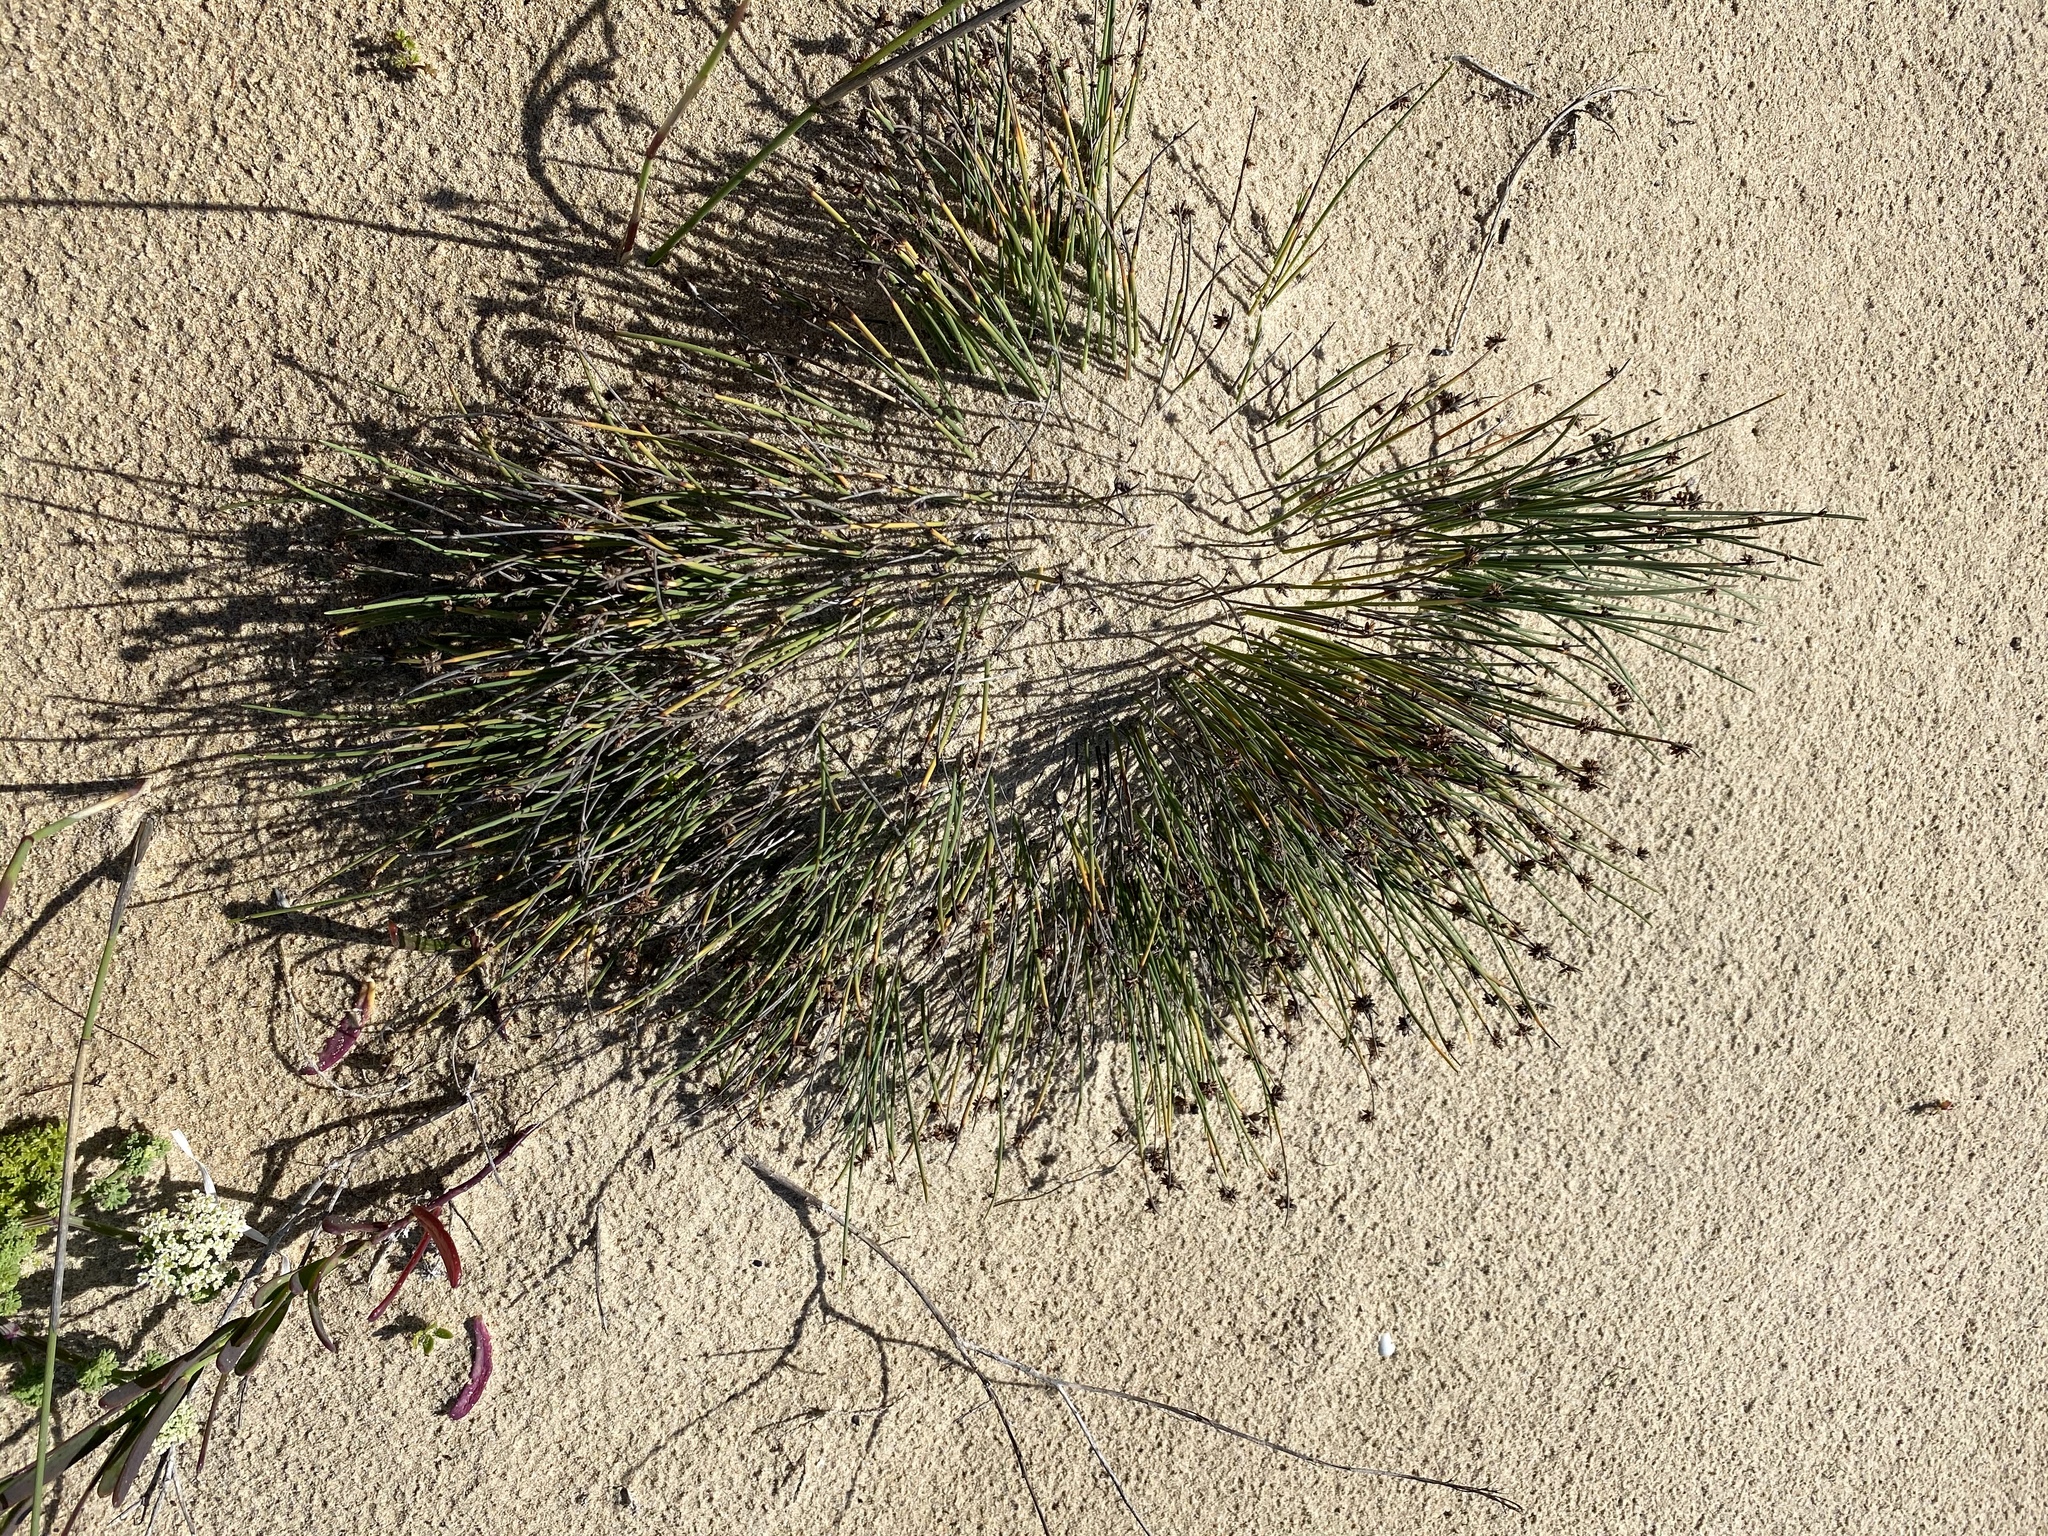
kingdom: Plantae
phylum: Tracheophyta
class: Liliopsida
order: Poales
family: Cyperaceae
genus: Ficinia
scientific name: Ficinia lateralis
